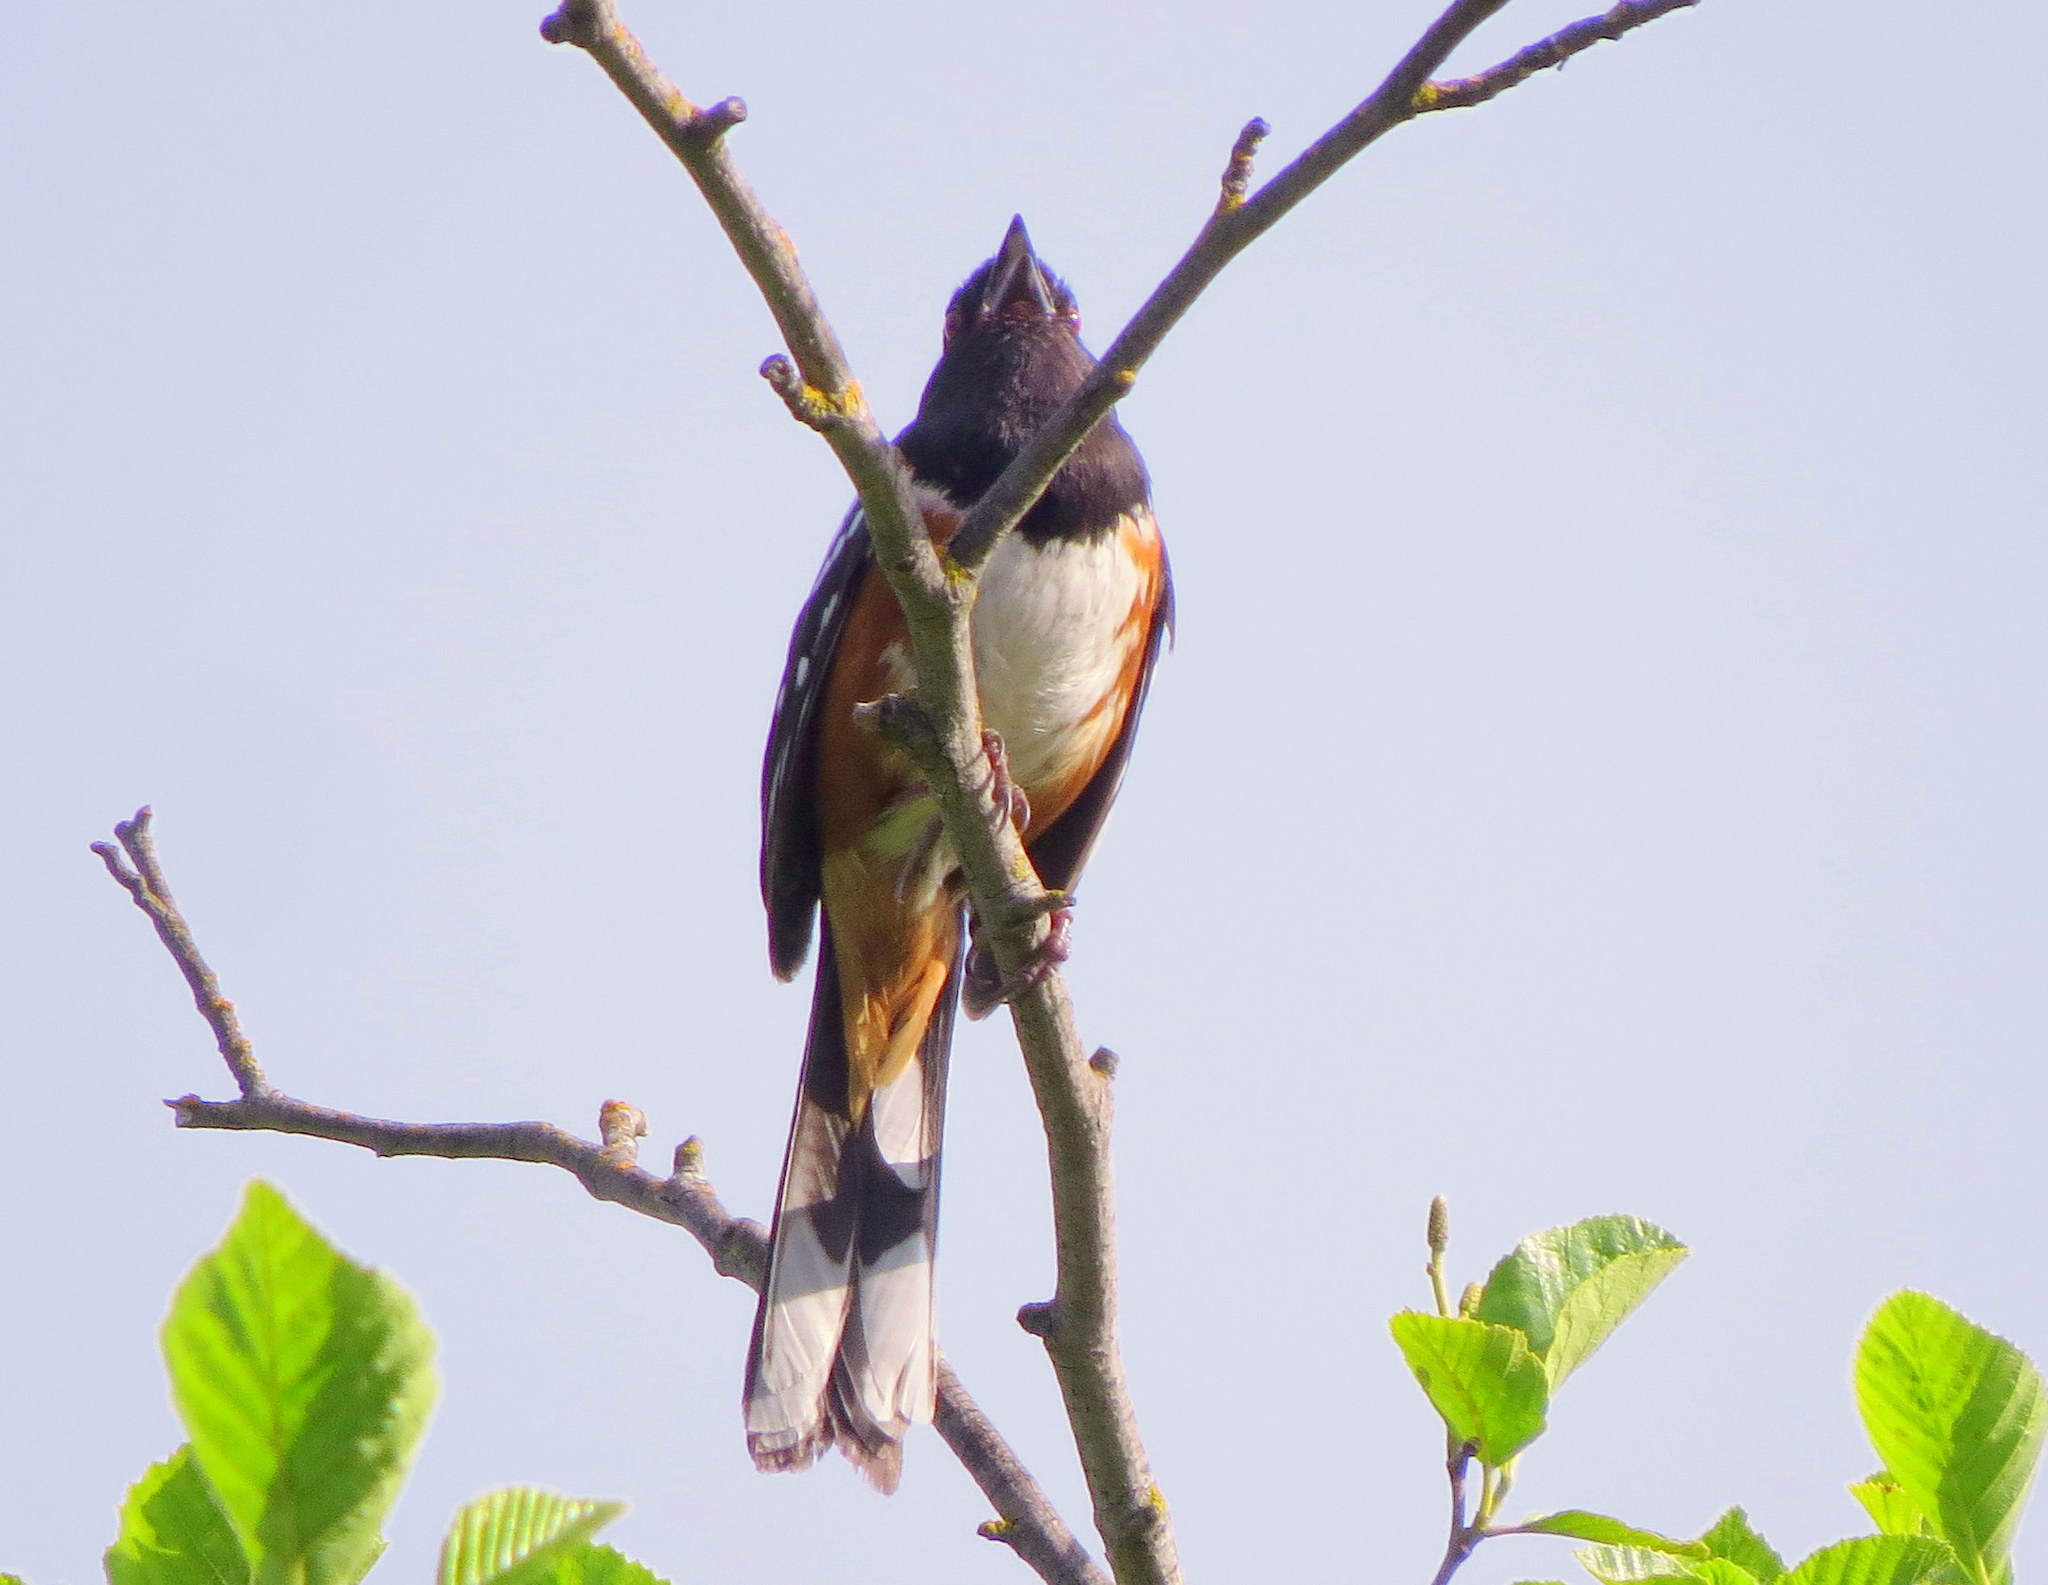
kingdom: Animalia
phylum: Chordata
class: Aves
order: Passeriformes
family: Passerellidae
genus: Pipilo
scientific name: Pipilo maculatus
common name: Spotted towhee
